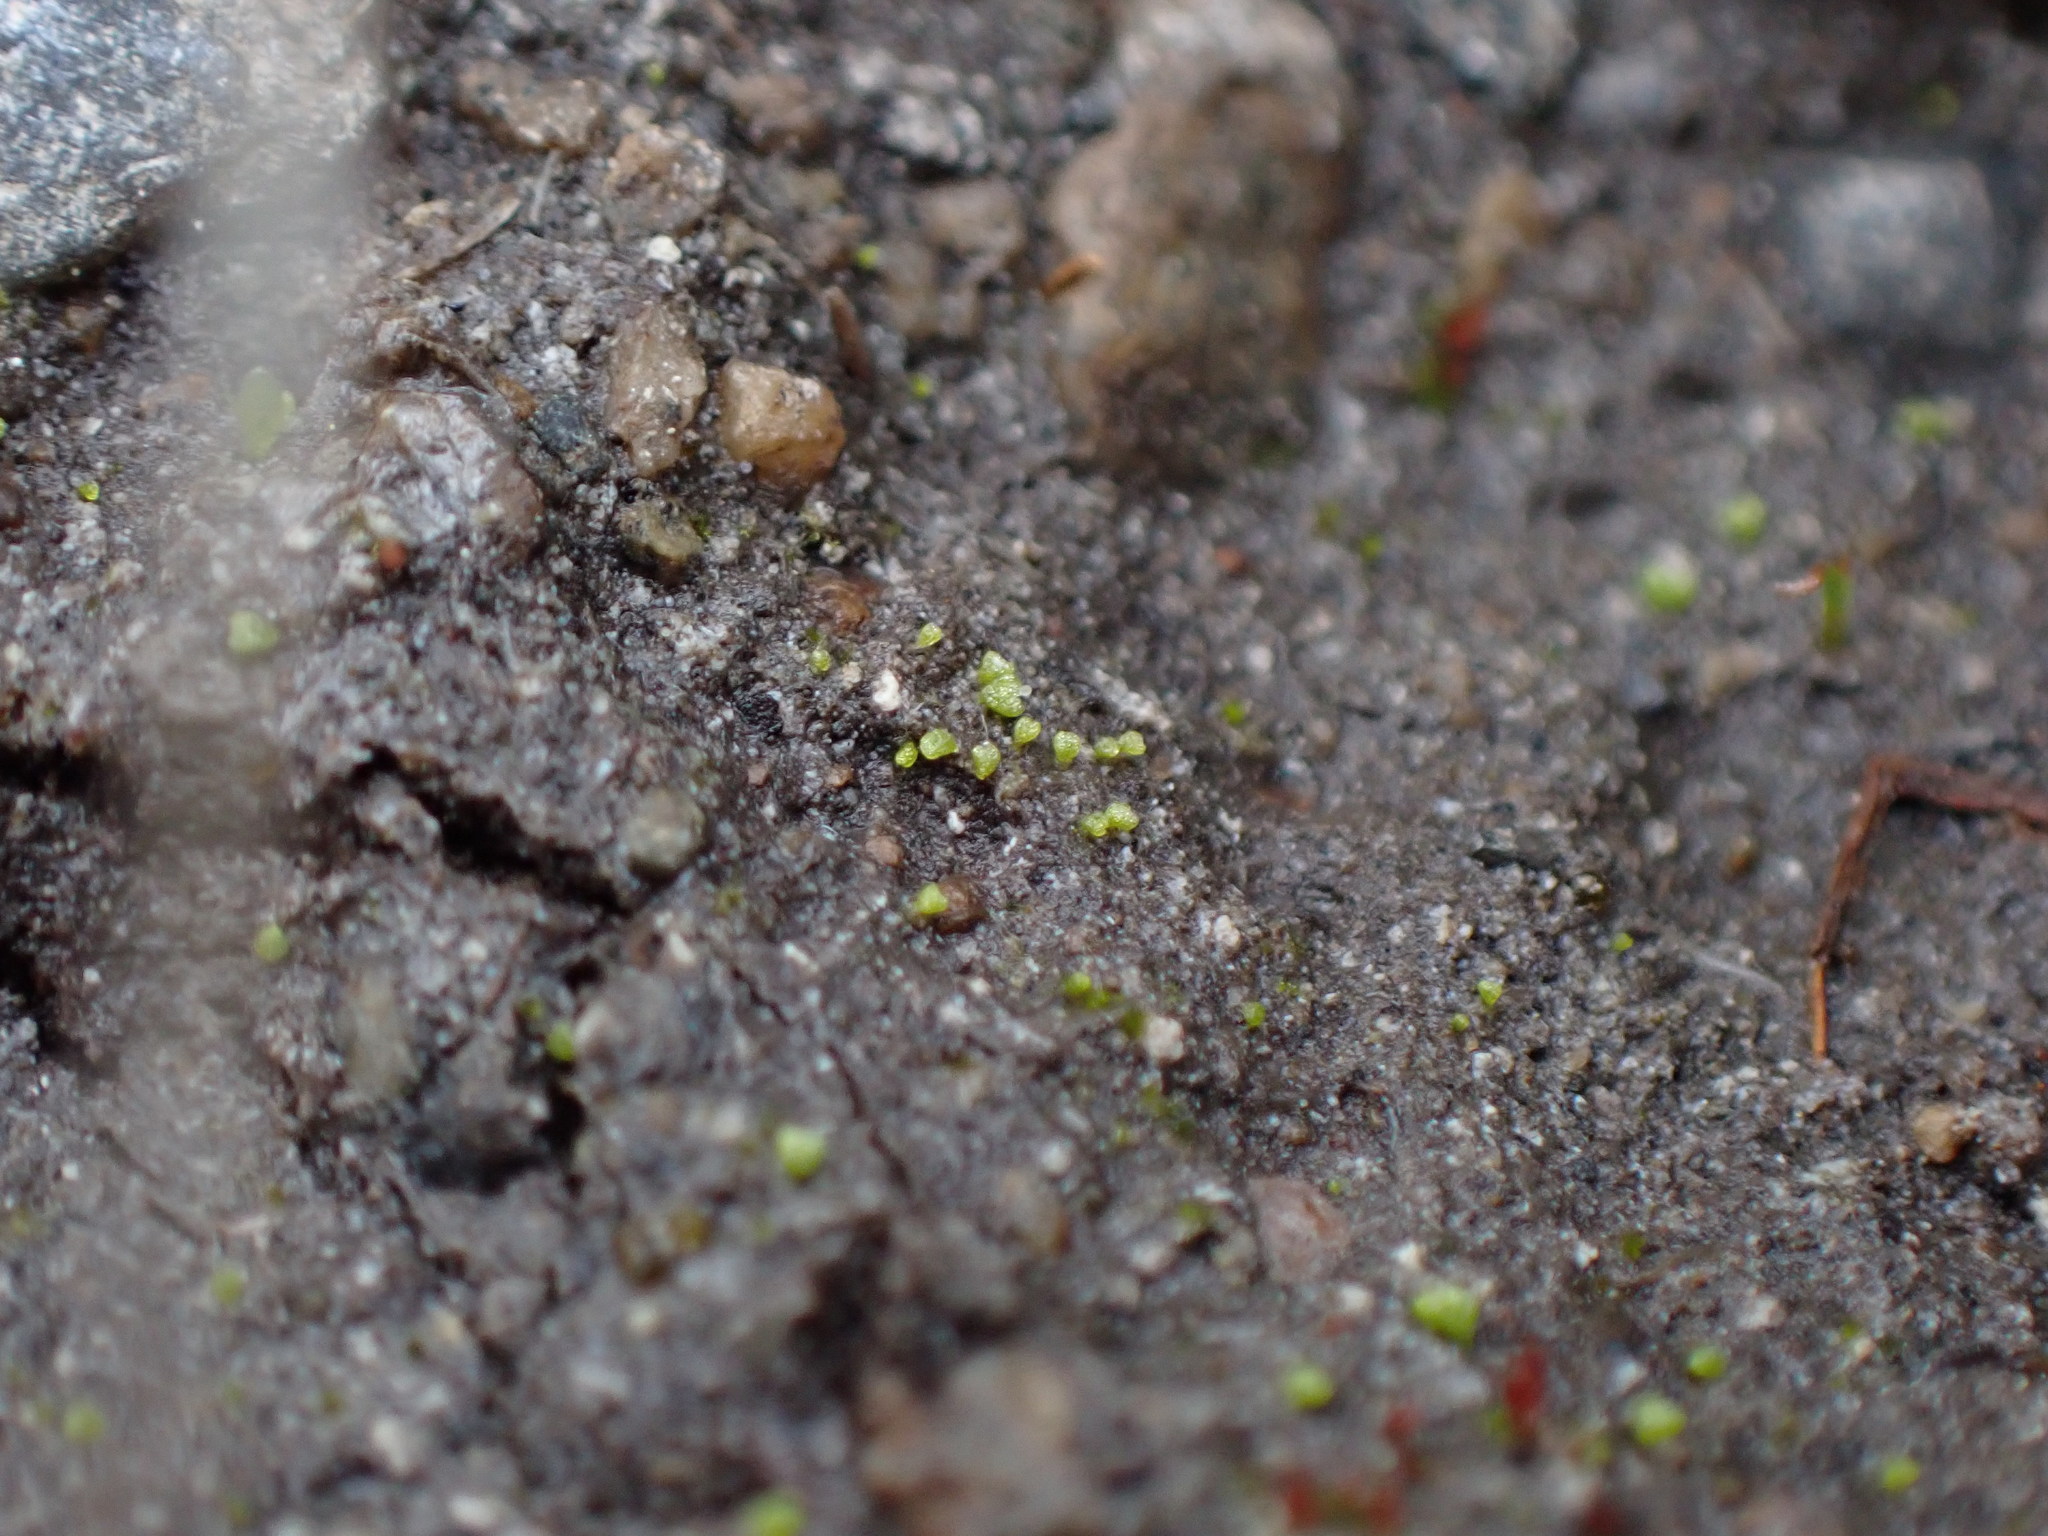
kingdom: Plantae
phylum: Marchantiophyta
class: Marchantiopsida
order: Marchantiales
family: Ricciaceae
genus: Riccia
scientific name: Riccia cavernosa
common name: Cavernous crystalwort
